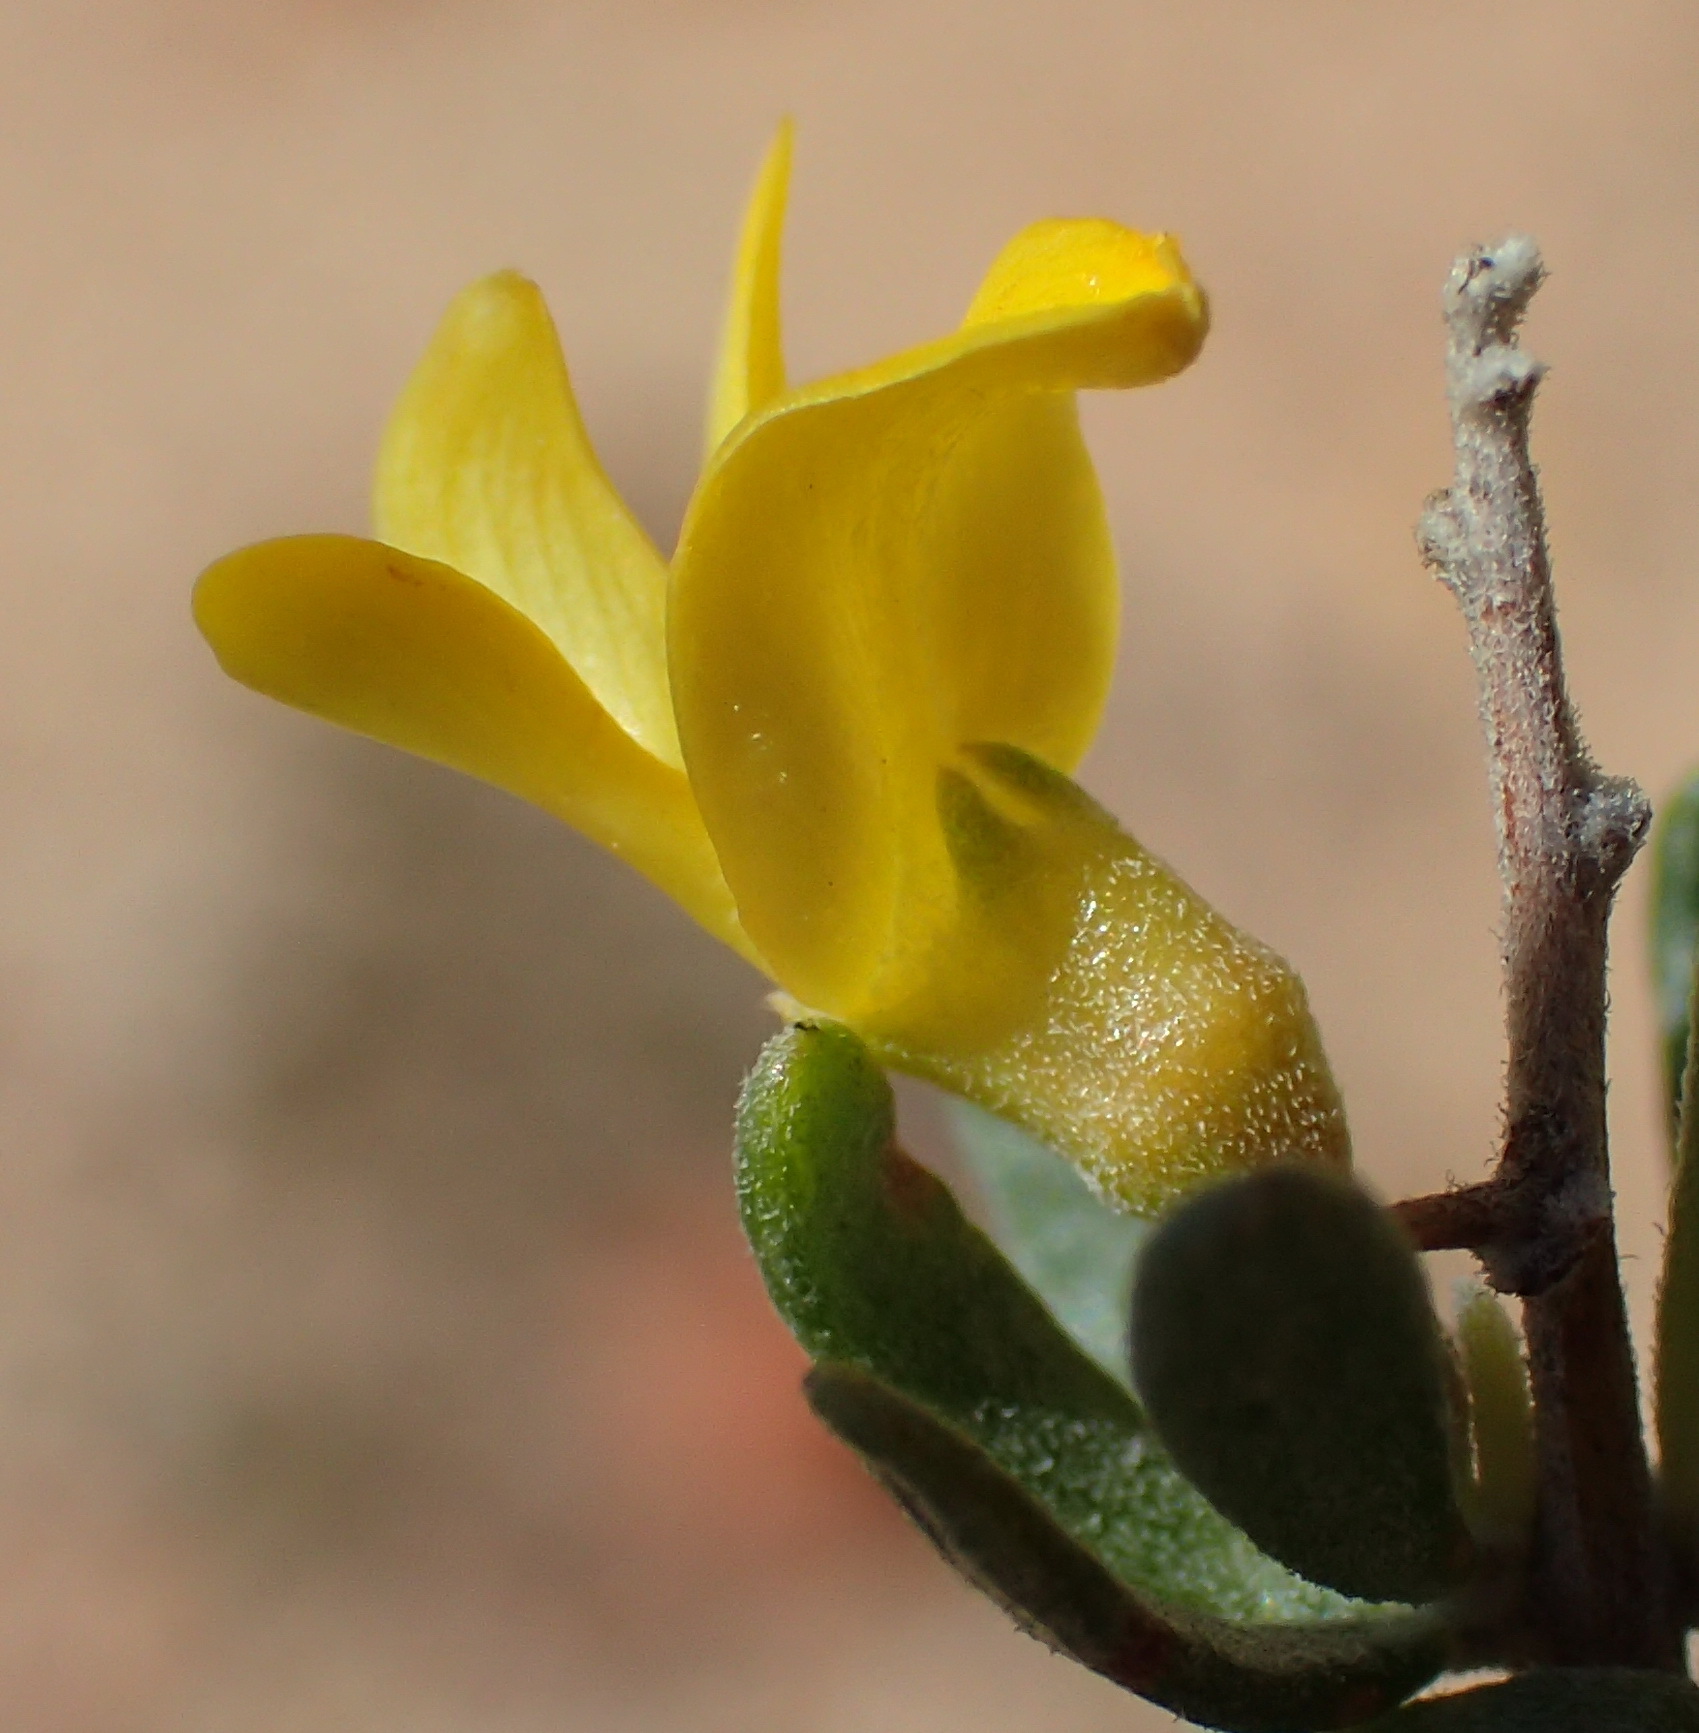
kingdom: Plantae
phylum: Tracheophyta
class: Magnoliopsida
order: Fabales
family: Fabaceae
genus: Aspalathus
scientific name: Aspalathus spinosa
